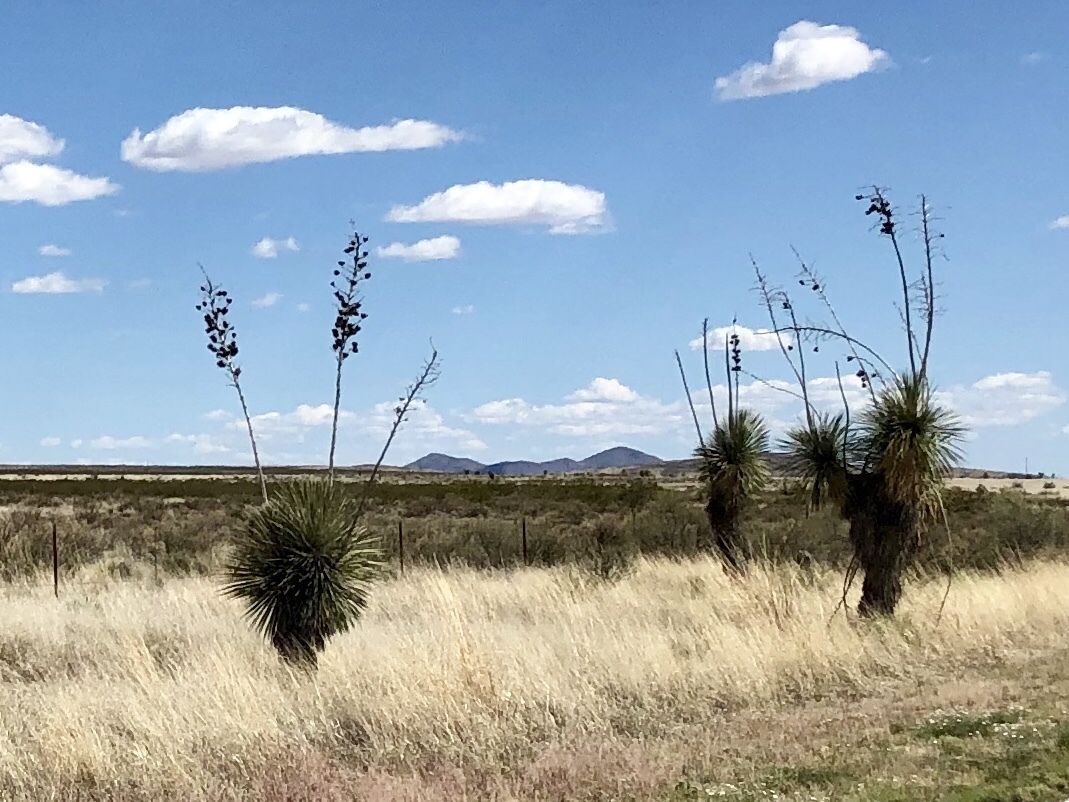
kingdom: Plantae
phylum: Tracheophyta
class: Liliopsida
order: Asparagales
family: Asparagaceae
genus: Yucca
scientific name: Yucca elata
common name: Palmella
